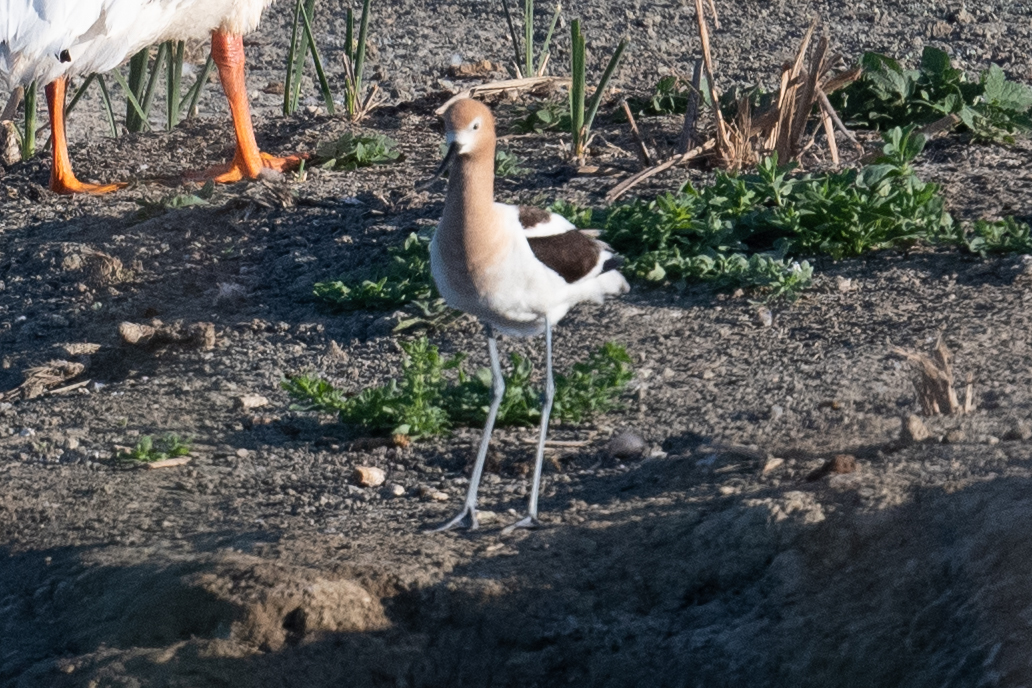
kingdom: Animalia
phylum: Chordata
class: Aves
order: Charadriiformes
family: Recurvirostridae
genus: Recurvirostra
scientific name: Recurvirostra americana
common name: American avocet
